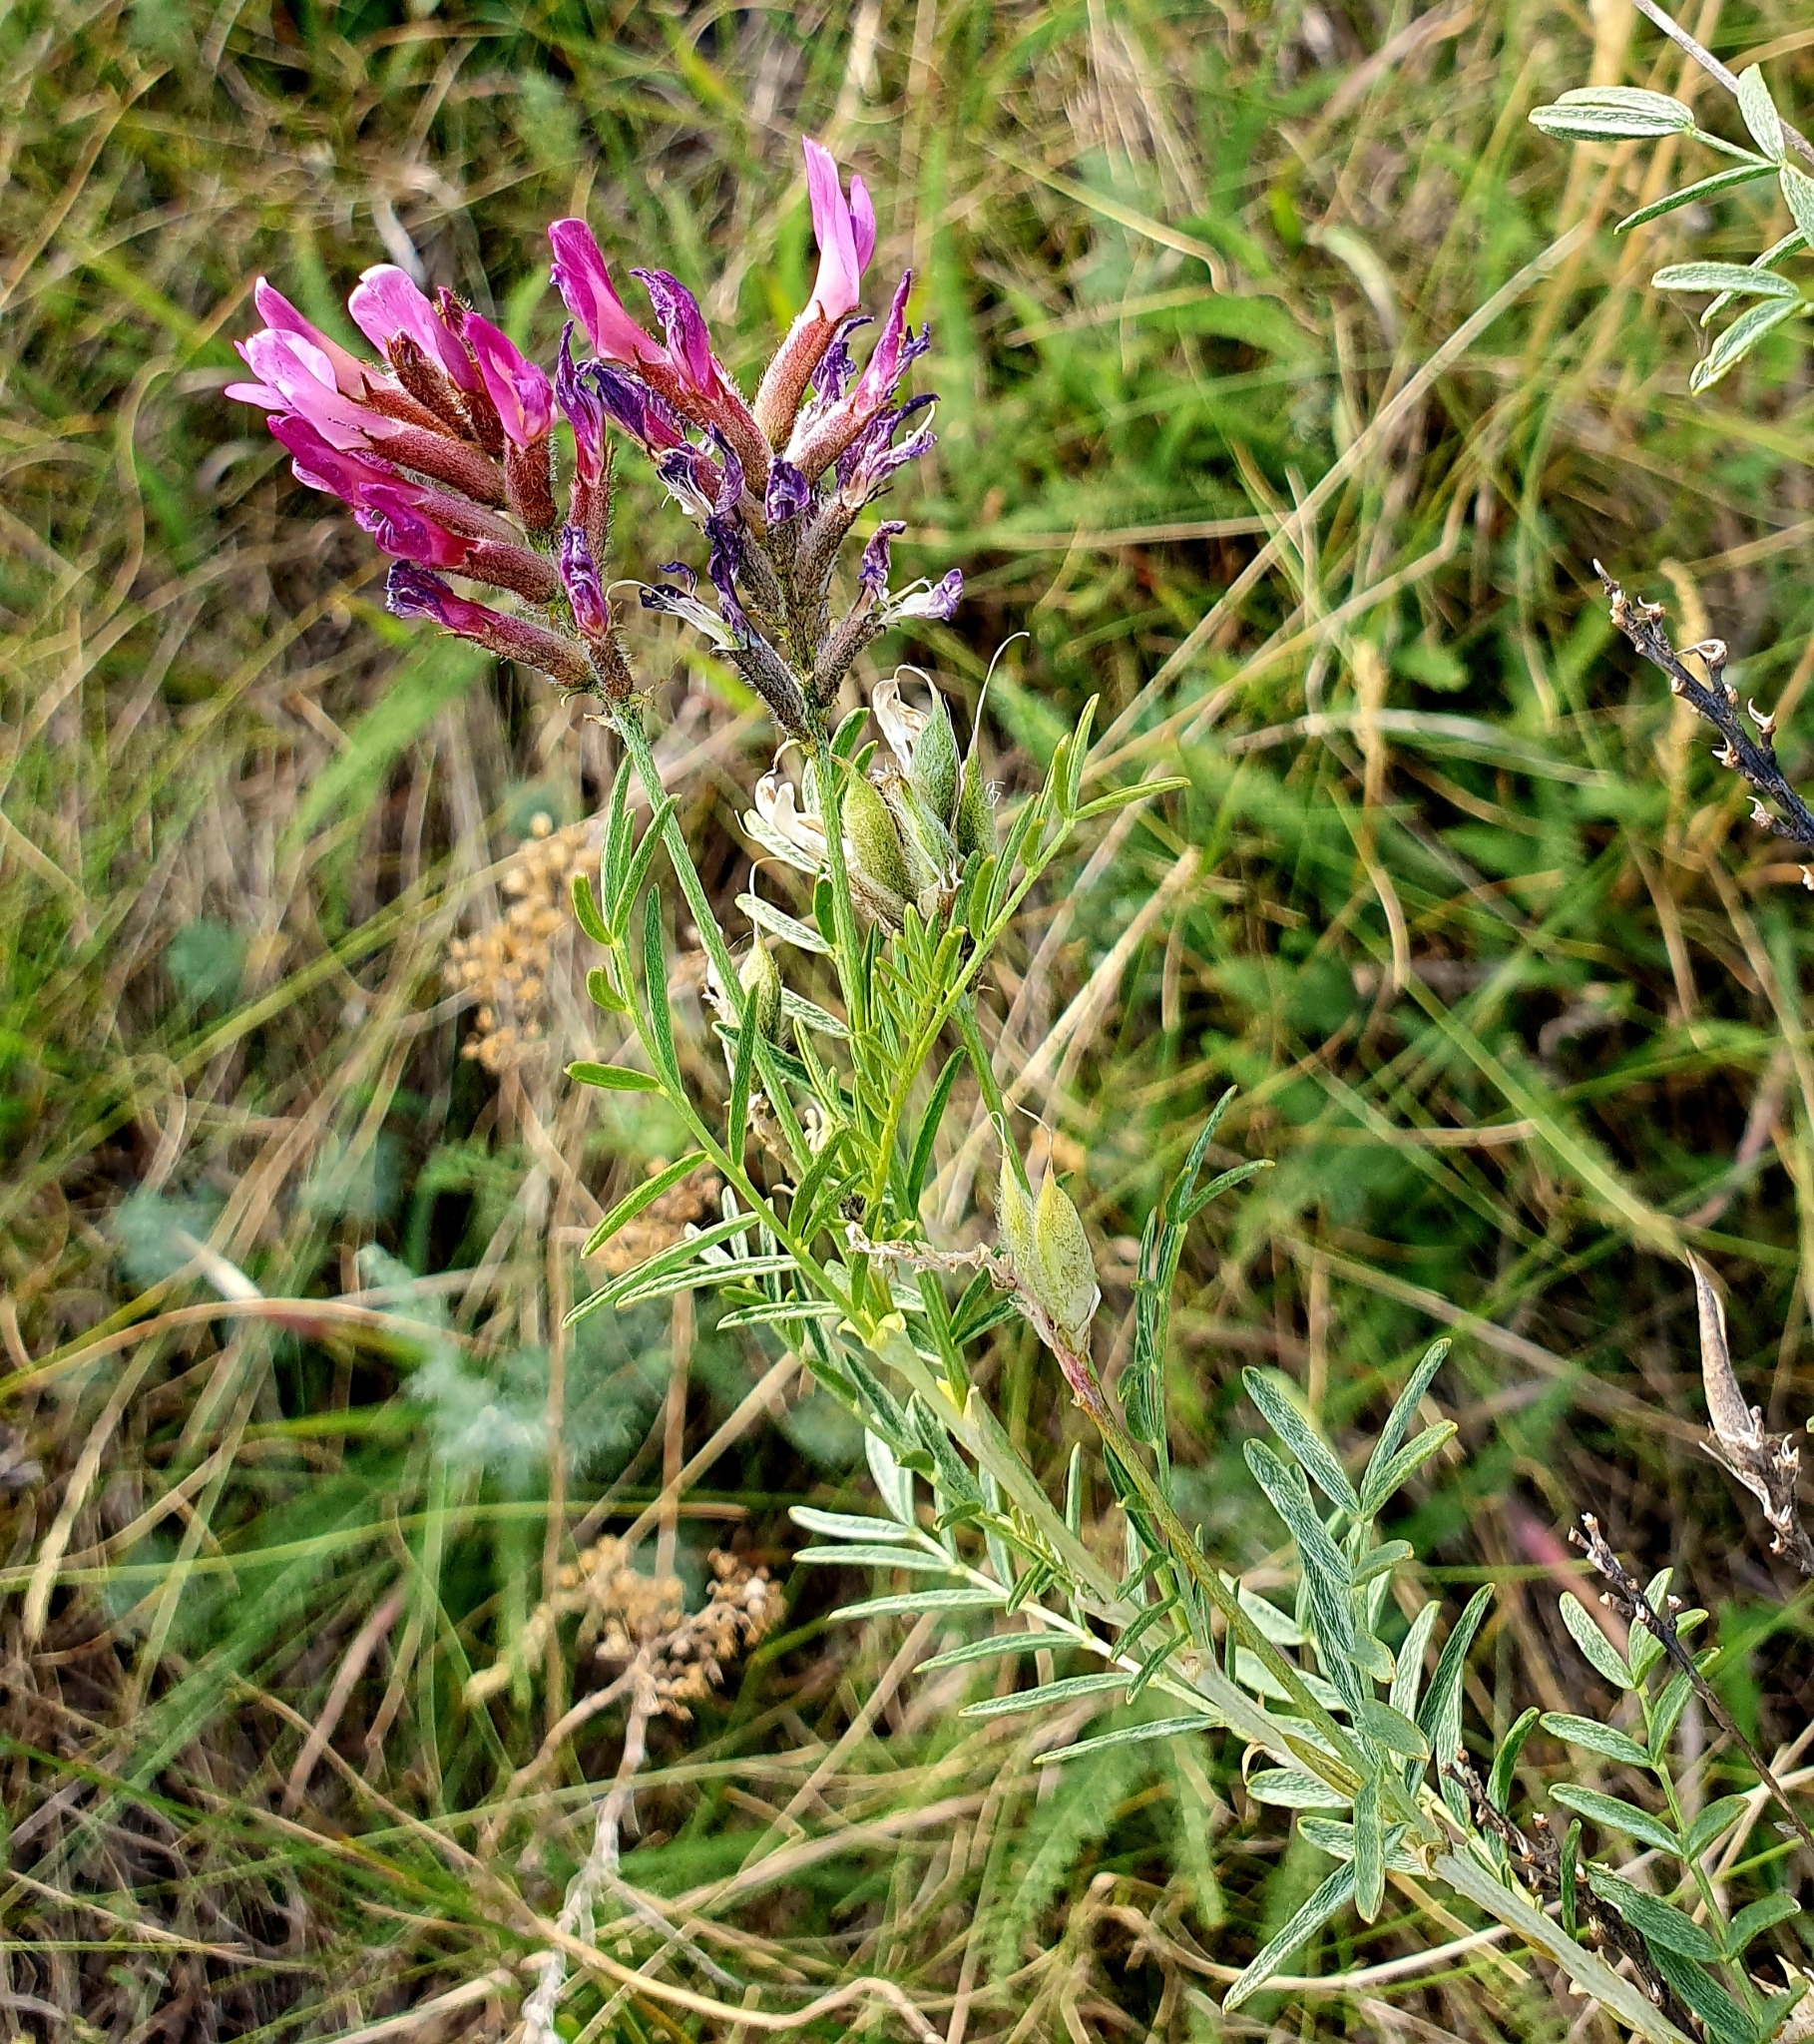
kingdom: Plantae
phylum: Tracheophyta
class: Magnoliopsida
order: Fabales
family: Fabaceae
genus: Astragalus
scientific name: Astragalus cornutus
